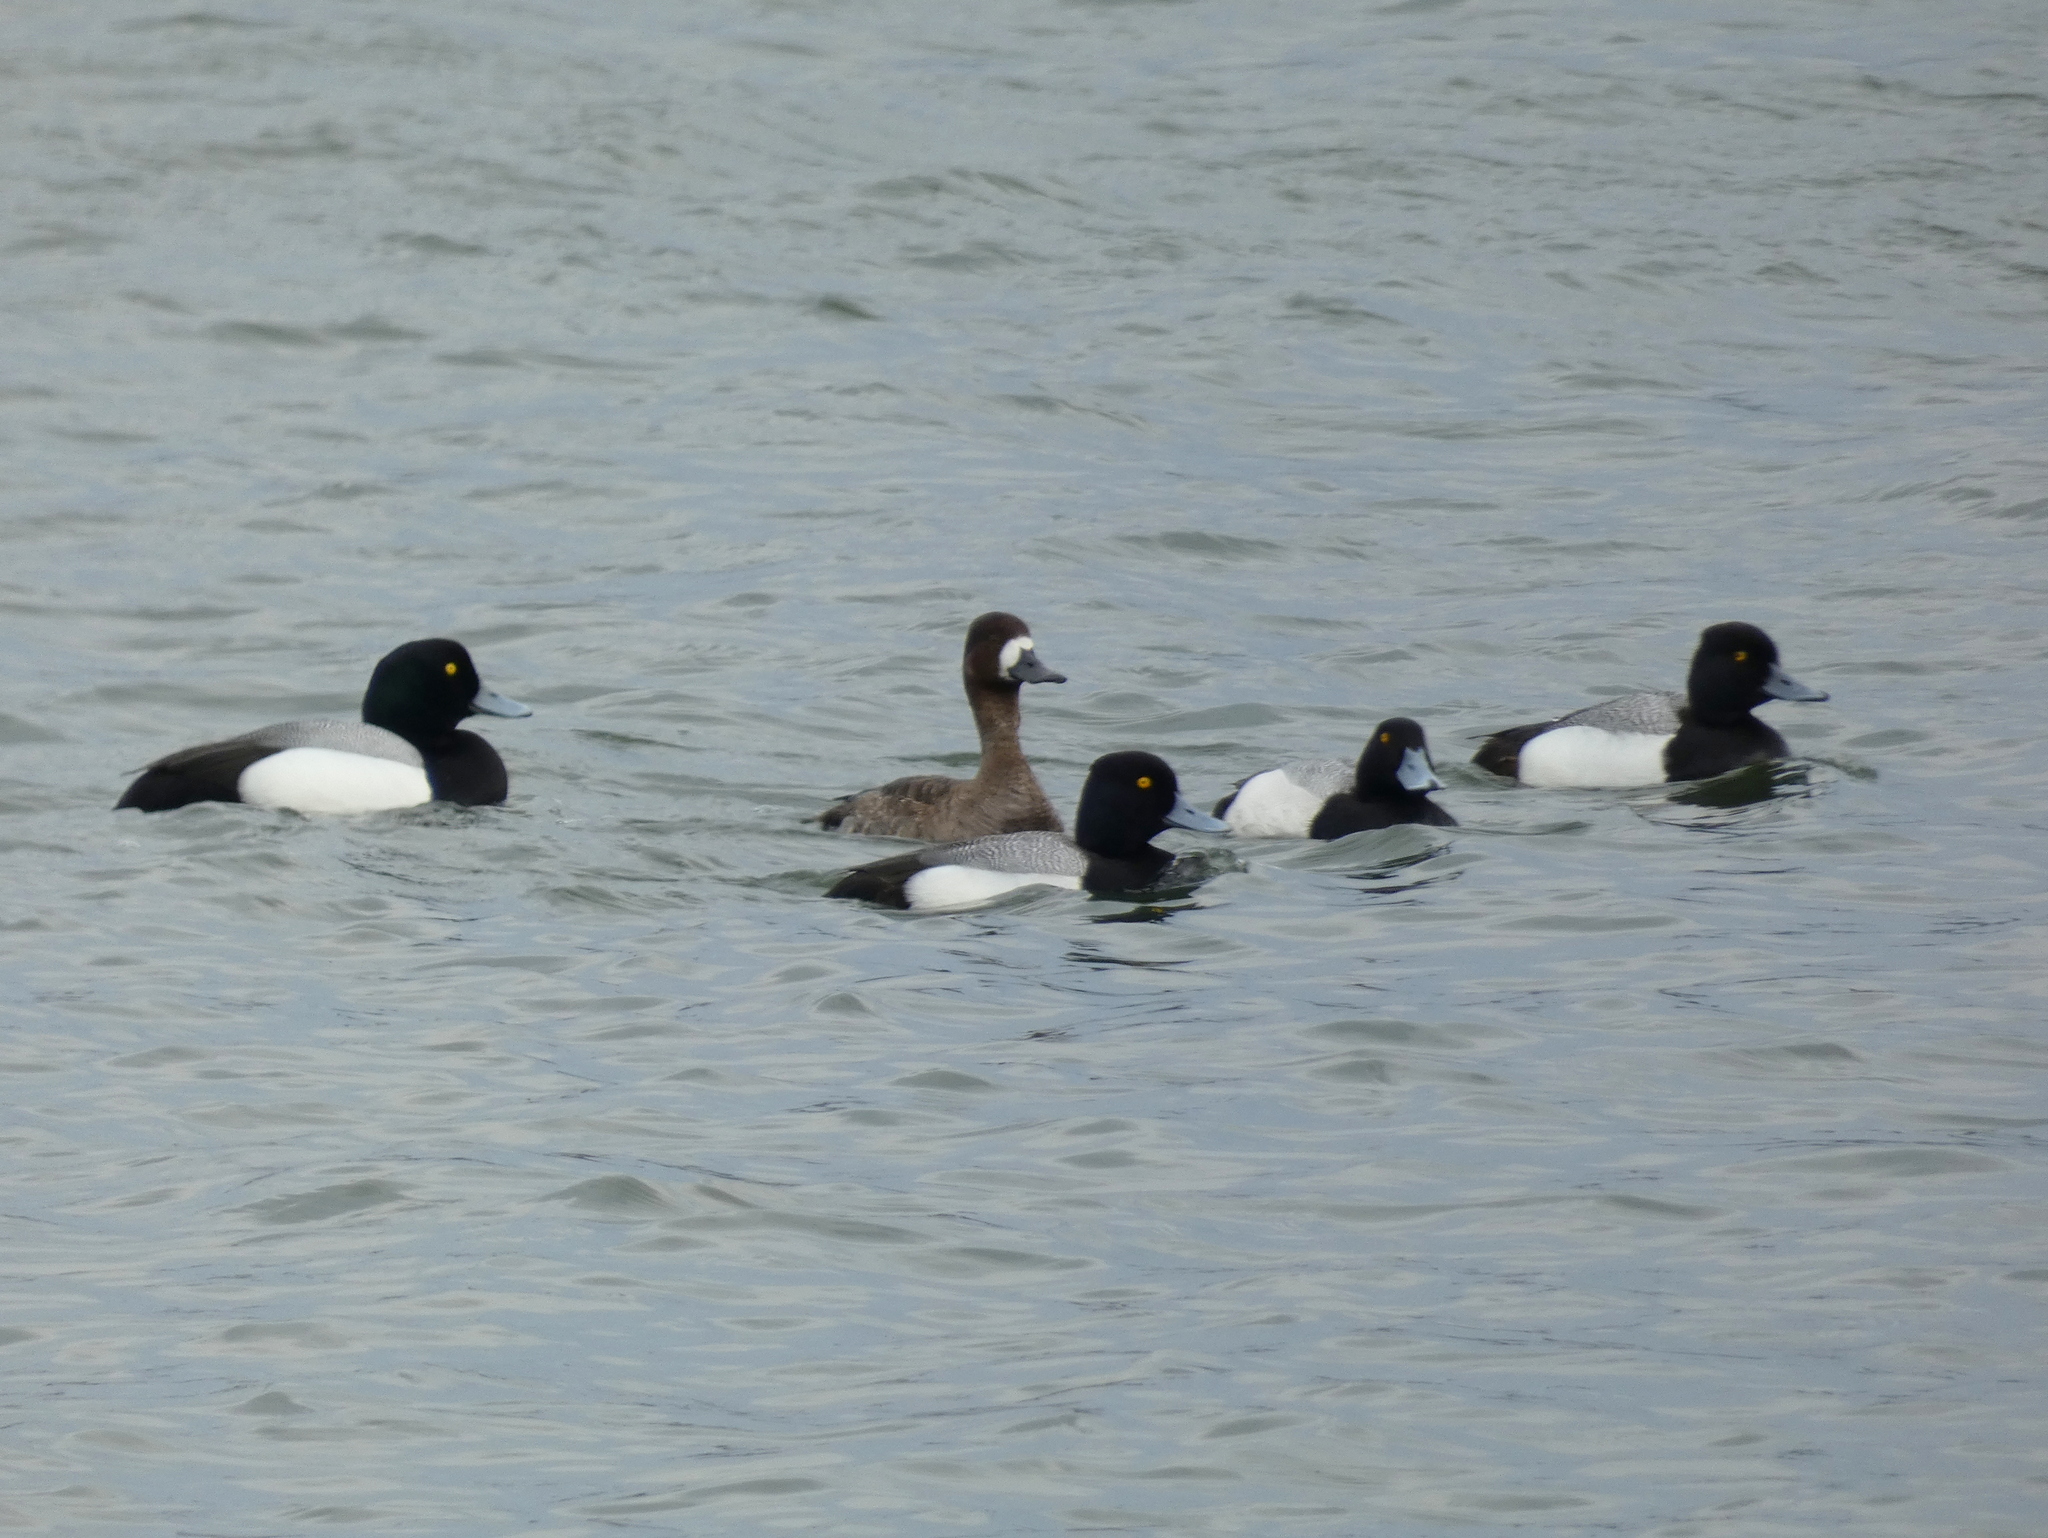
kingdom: Animalia
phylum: Chordata
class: Aves
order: Anseriformes
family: Anatidae
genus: Aythya
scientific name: Aythya affinis
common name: Lesser scaup
